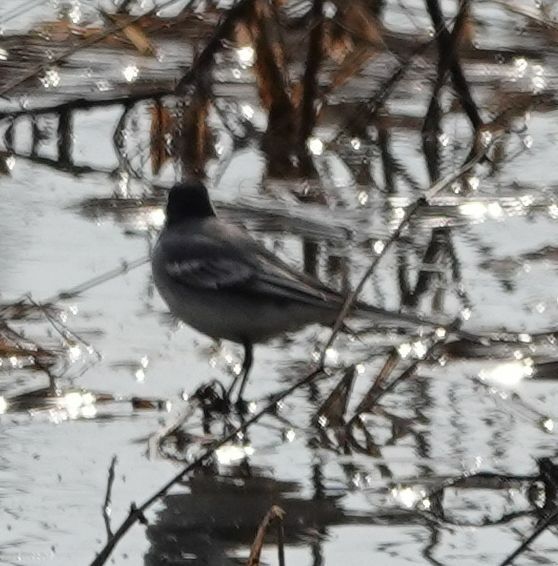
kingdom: Animalia
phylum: Chordata
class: Aves
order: Passeriformes
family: Motacillidae
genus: Motacilla
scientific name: Motacilla alba
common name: White wagtail
